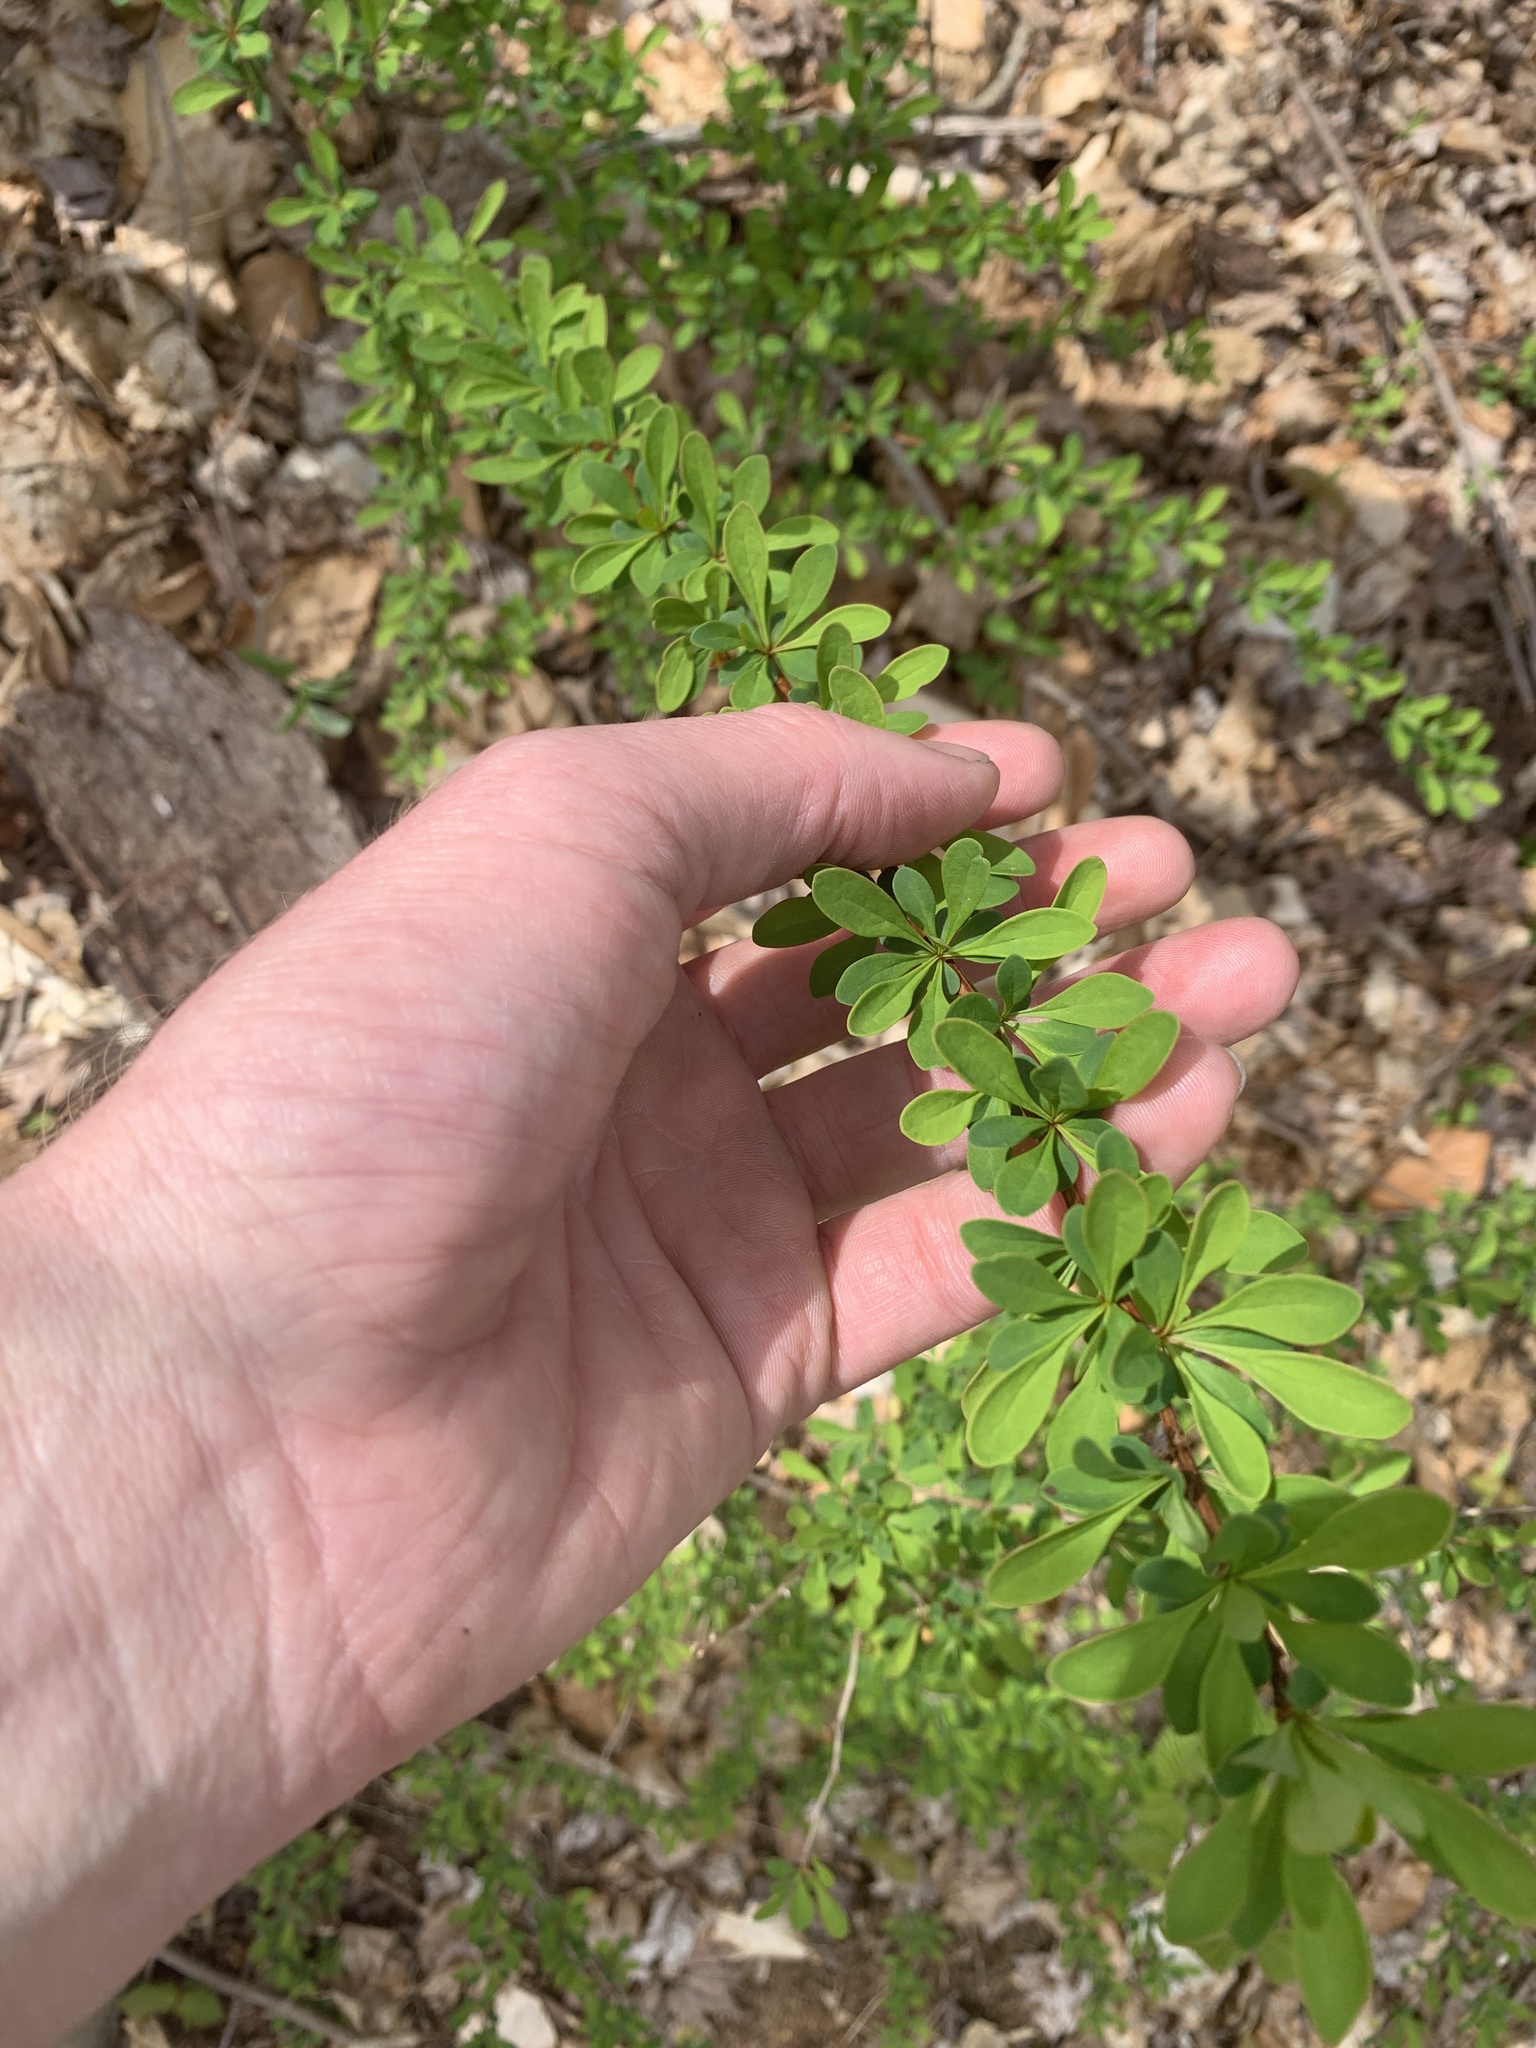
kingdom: Plantae
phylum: Tracheophyta
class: Magnoliopsida
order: Ranunculales
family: Berberidaceae
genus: Berberis
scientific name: Berberis thunbergii
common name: Japanese barberry
